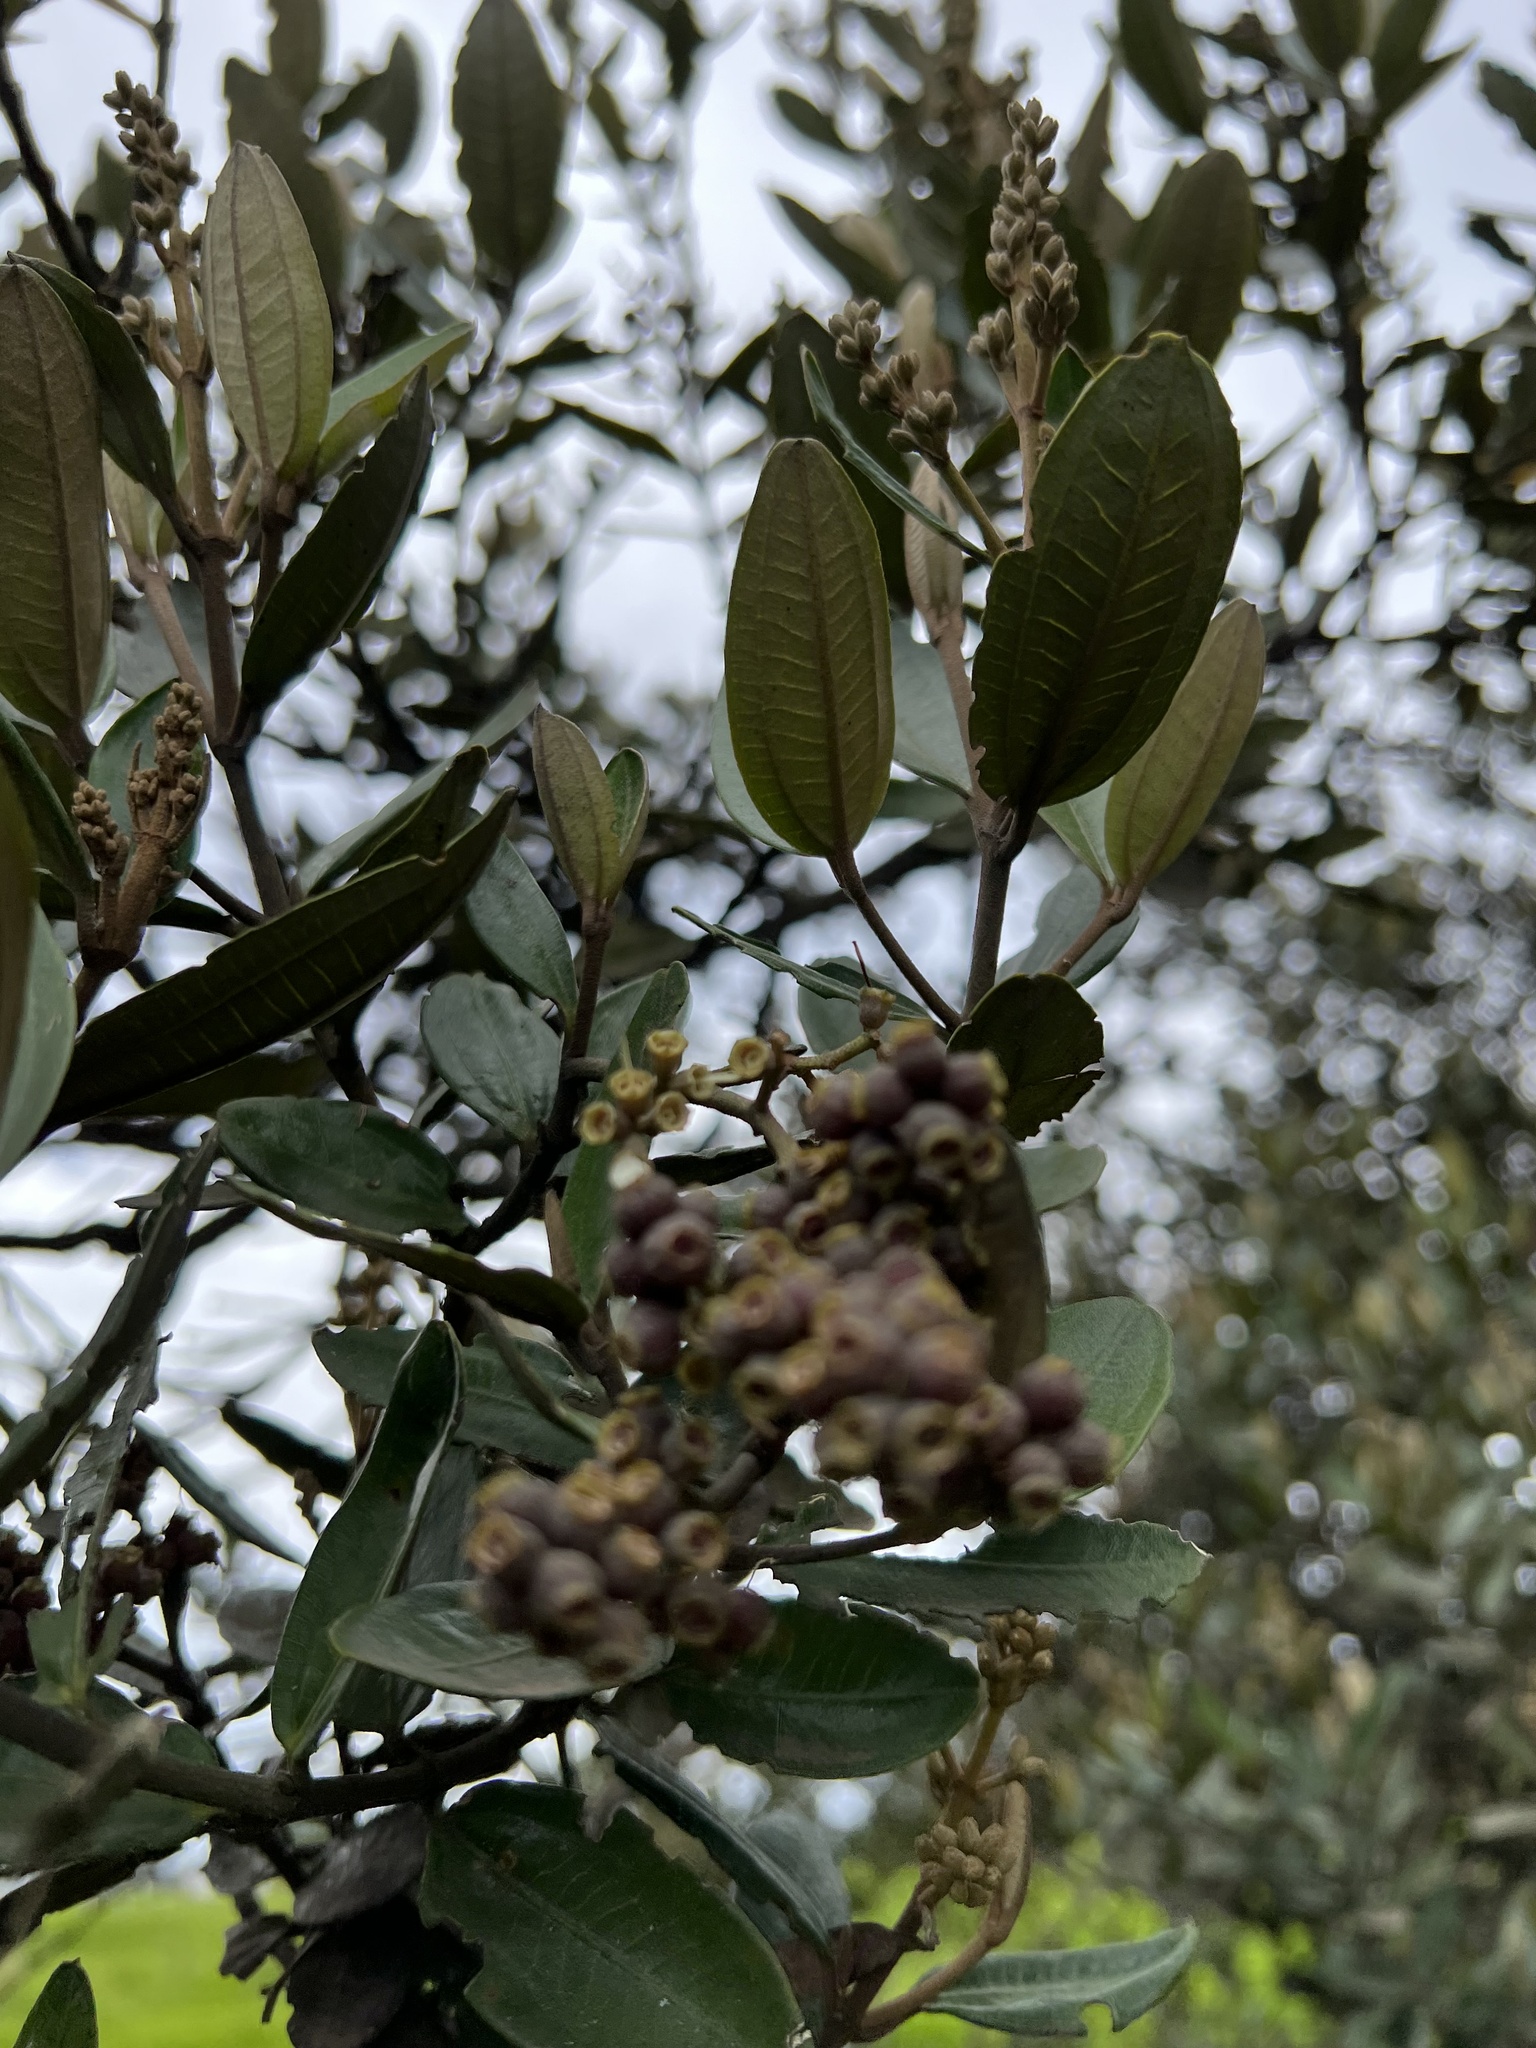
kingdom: Plantae
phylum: Tracheophyta
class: Magnoliopsida
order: Myrtales
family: Melastomataceae
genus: Miconia
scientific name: Miconia squamulosa
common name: Squamulose maya
